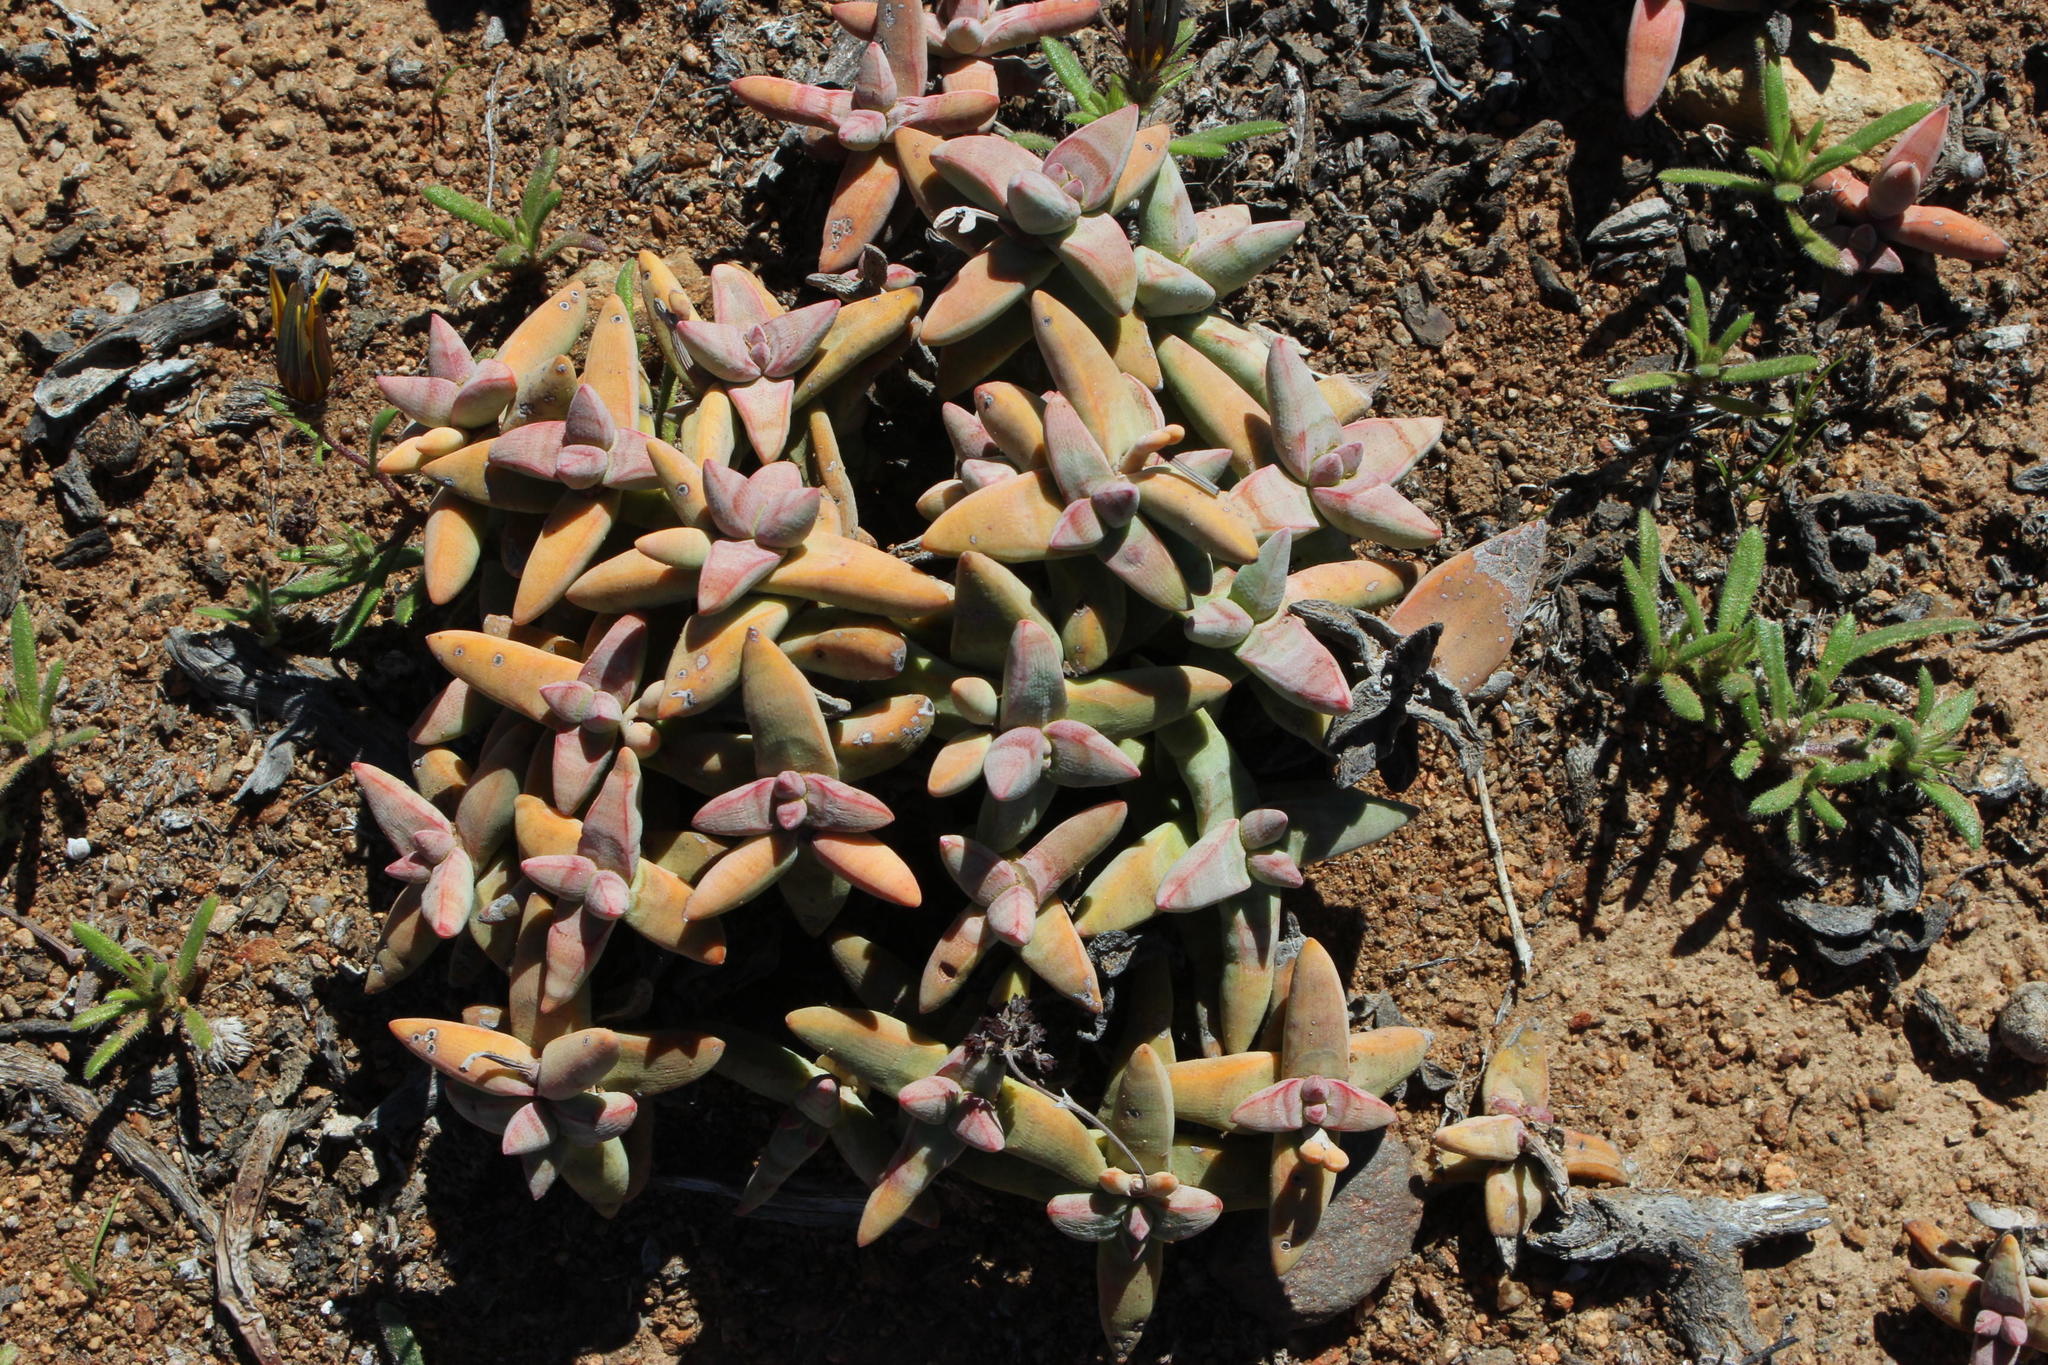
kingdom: Plantae
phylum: Tracheophyta
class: Magnoliopsida
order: Saxifragales
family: Crassulaceae
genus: Crassula
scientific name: Crassula grisea
